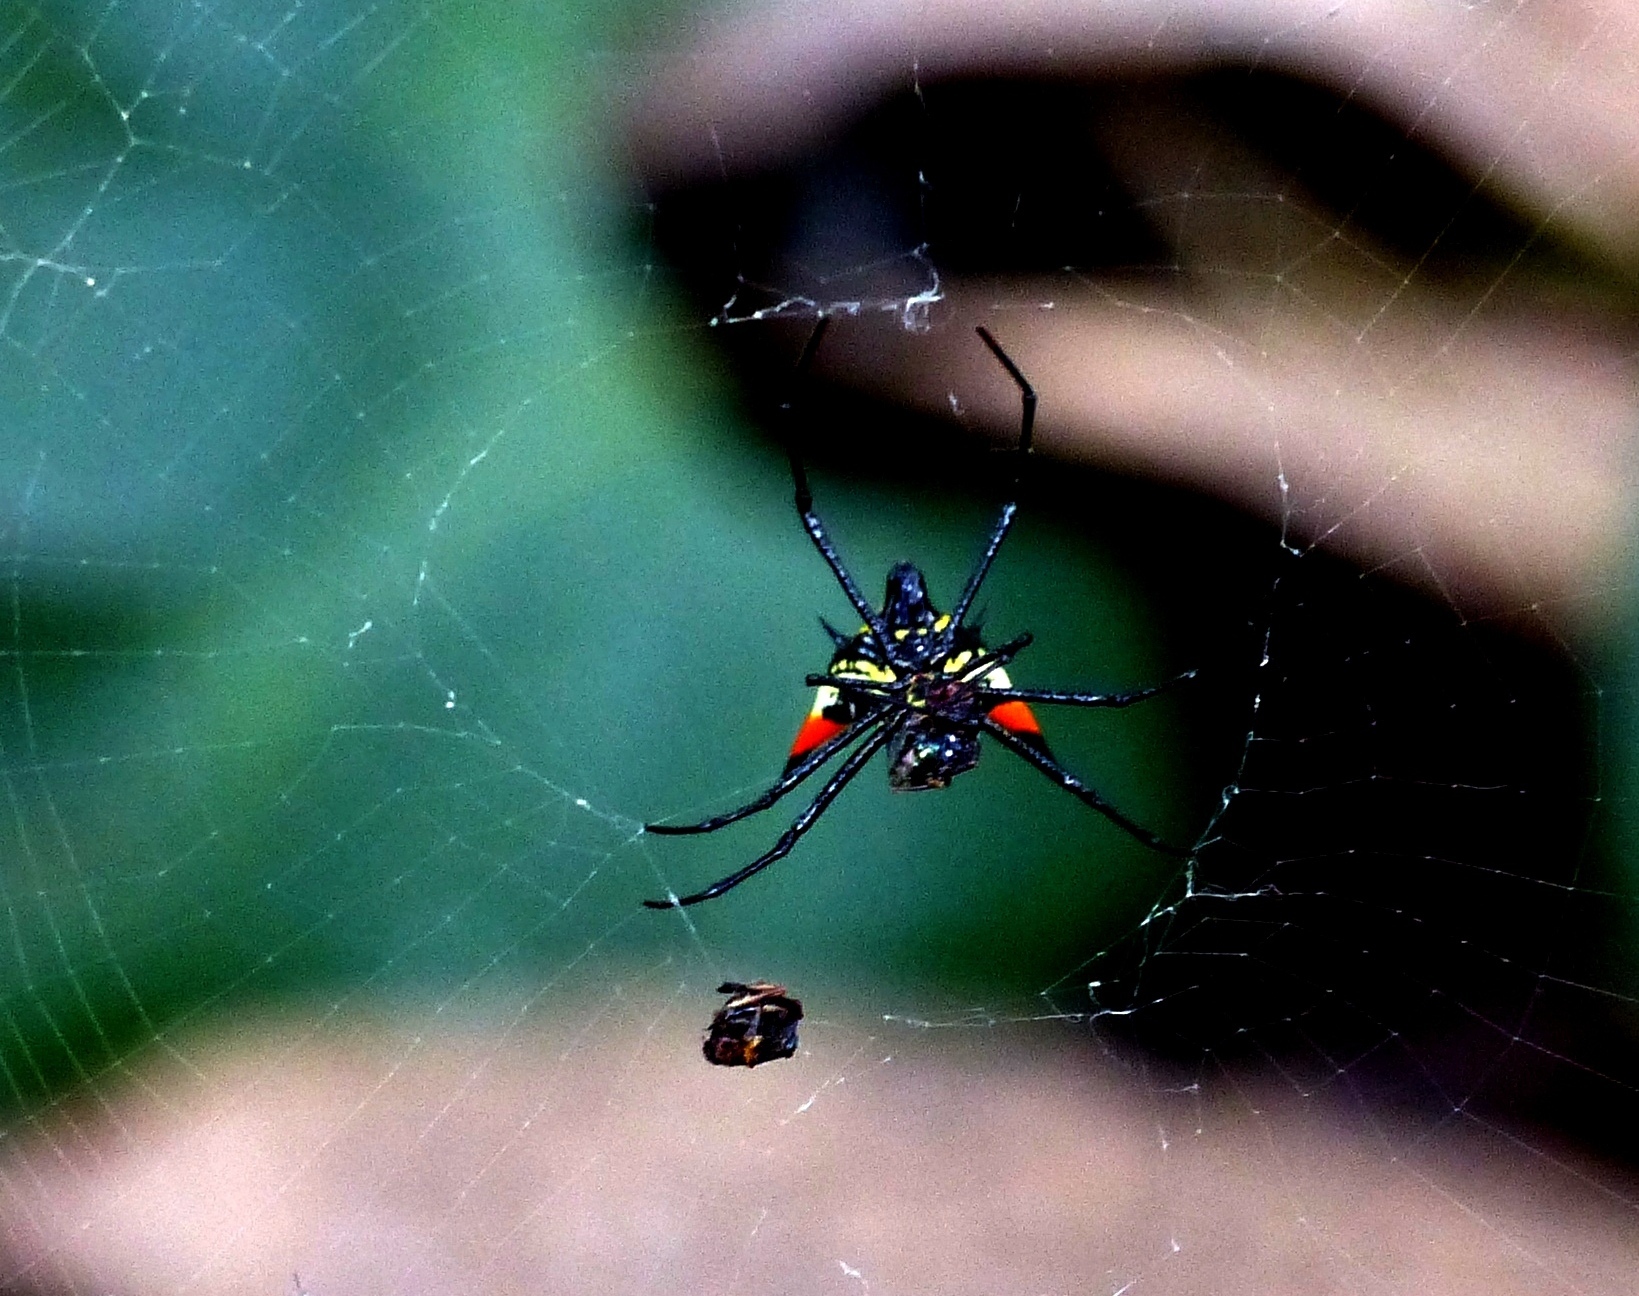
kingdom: Animalia
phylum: Arthropoda
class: Arachnida
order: Araneae
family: Araneidae
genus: Micrathena
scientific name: Micrathena schreibersi
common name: Orb weavers
